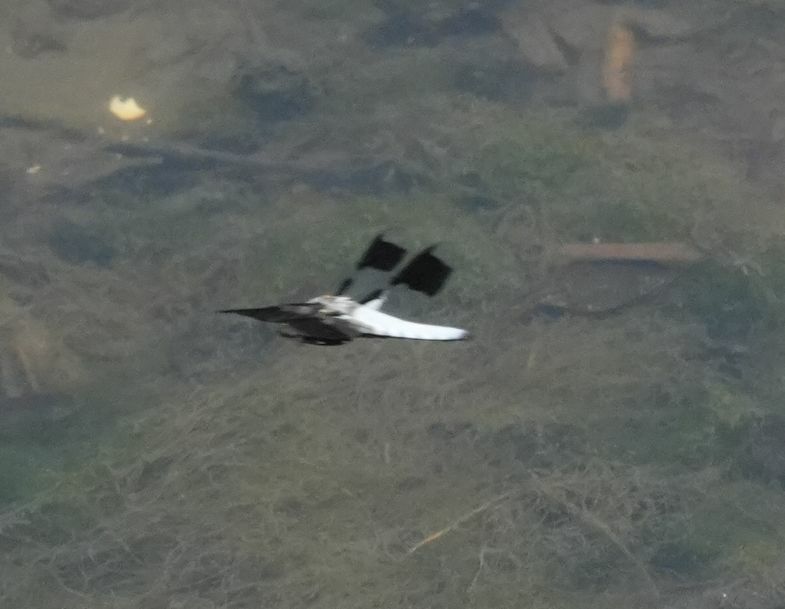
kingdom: Animalia
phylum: Arthropoda
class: Insecta
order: Odonata
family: Libellulidae
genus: Plathemis
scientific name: Plathemis lydia
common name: Common whitetail
